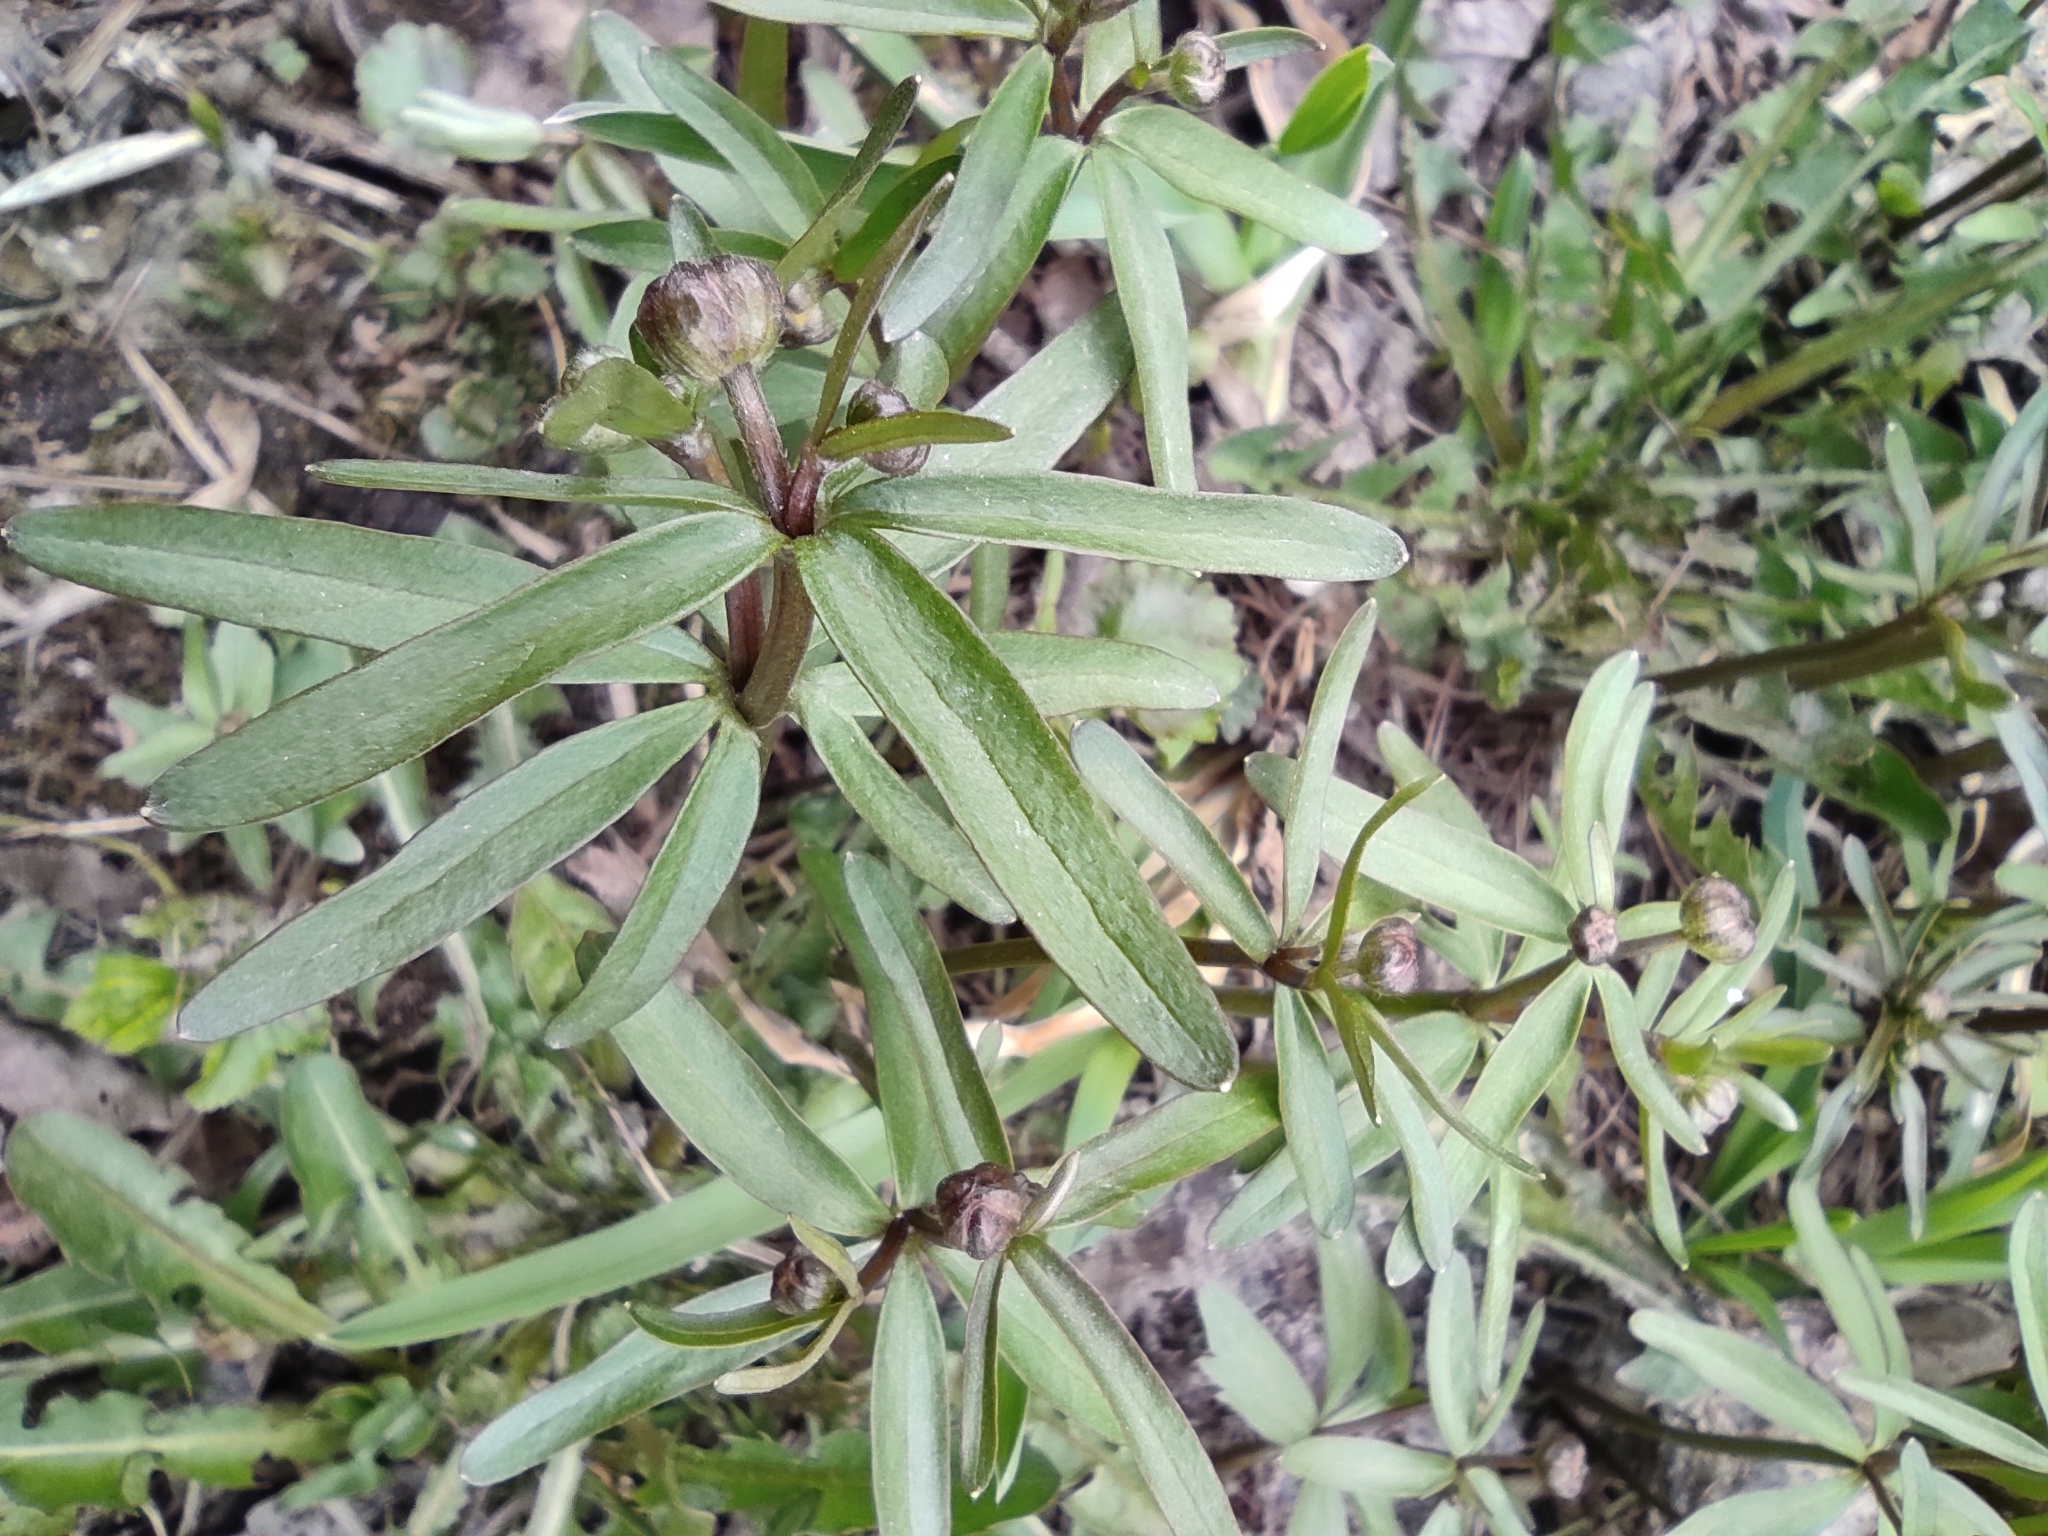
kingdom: Plantae
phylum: Tracheophyta
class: Magnoliopsida
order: Ranunculales
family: Ranunculaceae
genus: Ranunculus
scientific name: Ranunculus monophyllus
